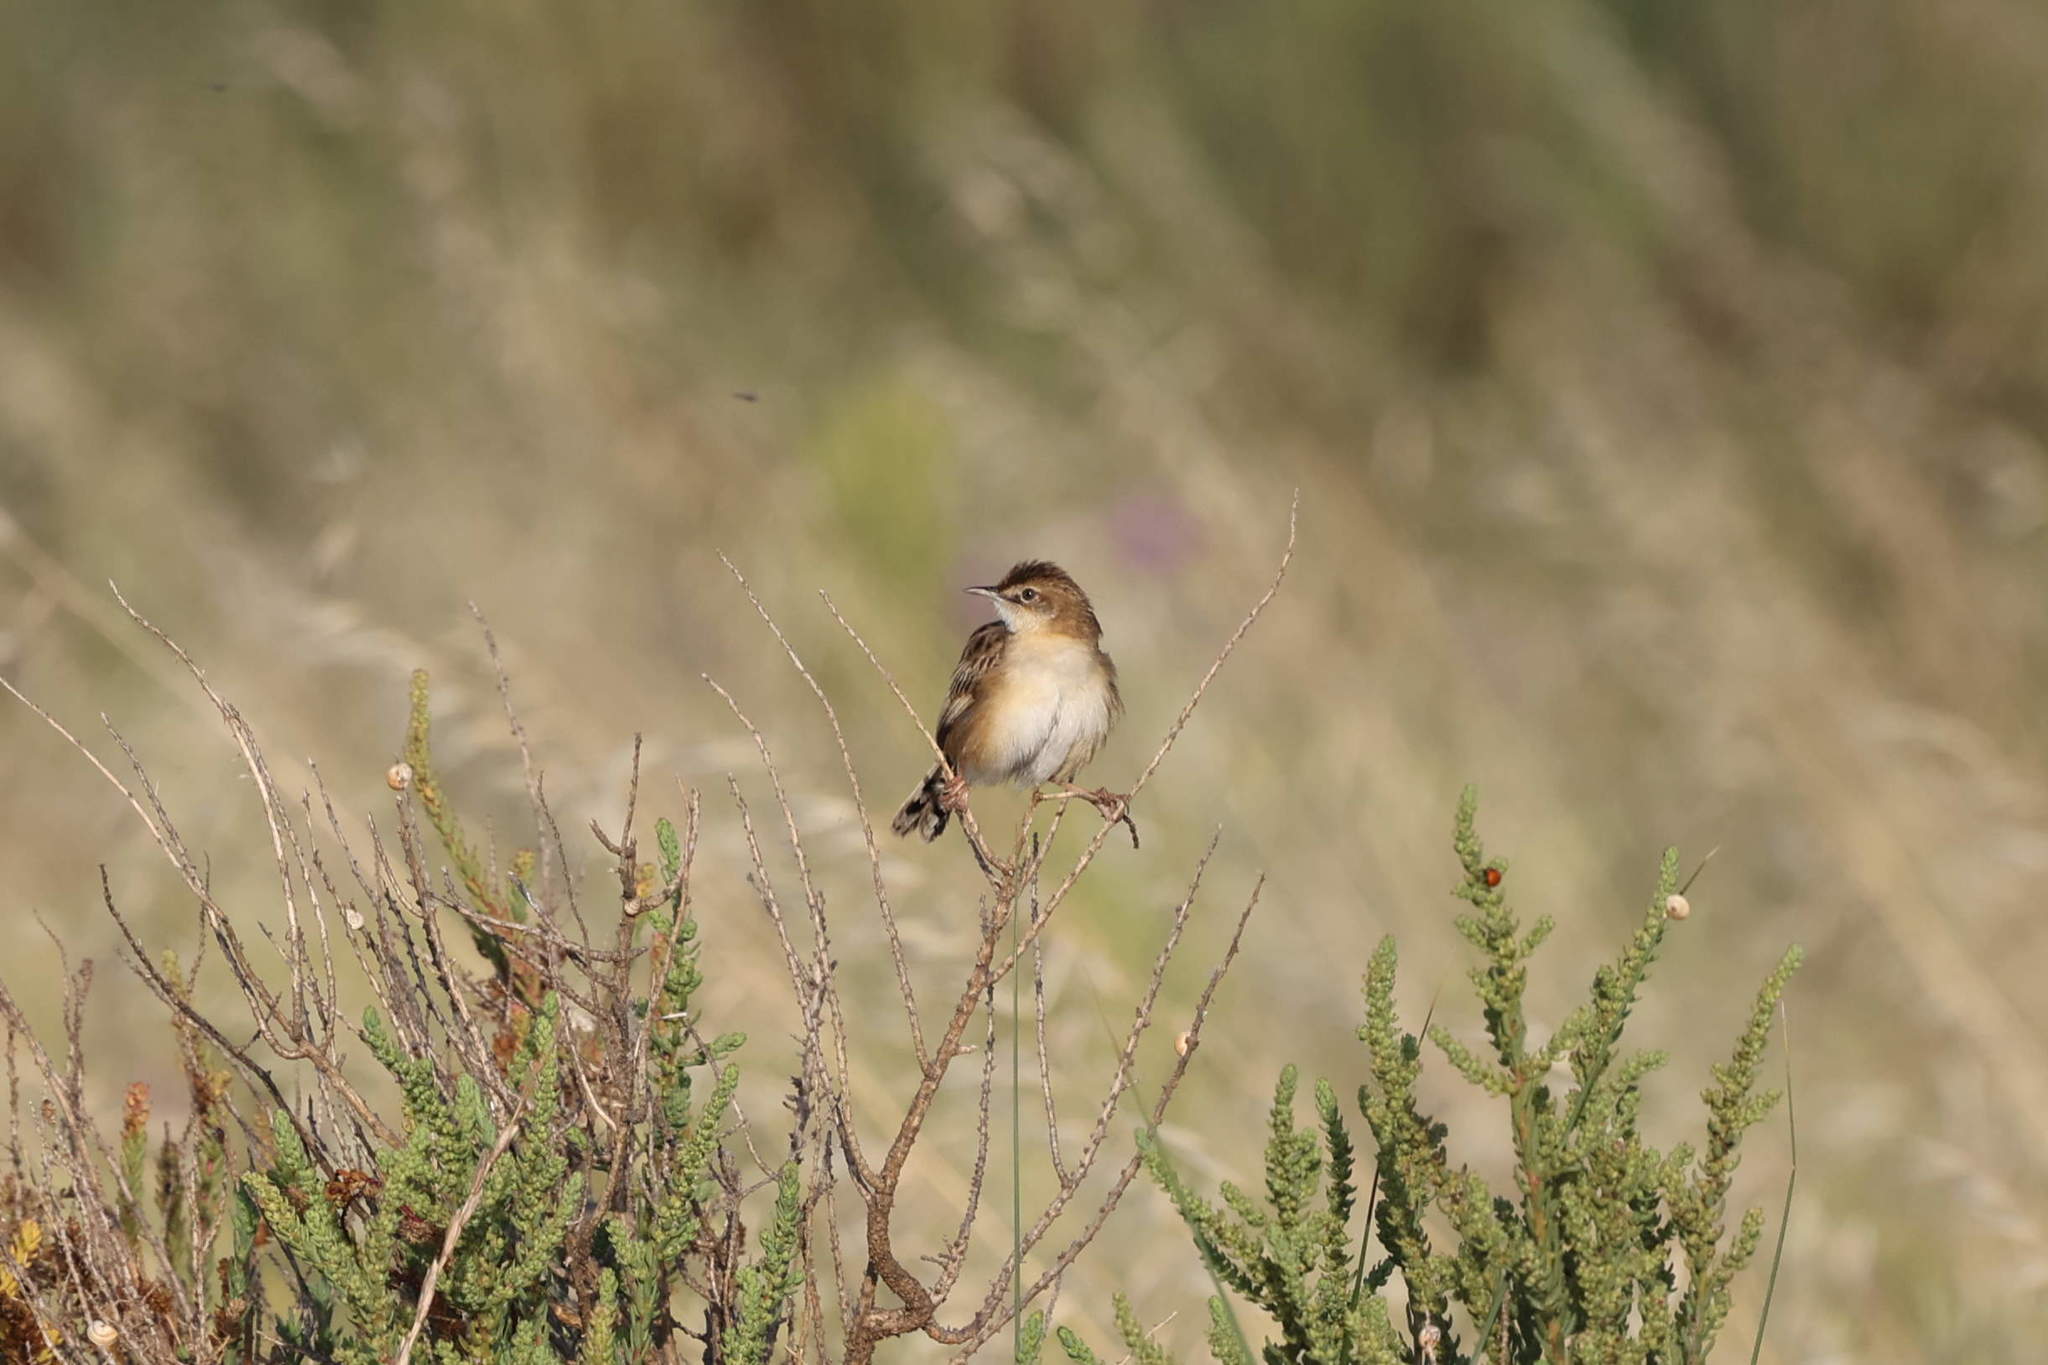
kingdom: Animalia
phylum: Chordata
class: Aves
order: Passeriformes
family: Cisticolidae
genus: Cisticola
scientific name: Cisticola juncidis
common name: Zitting cisticola
